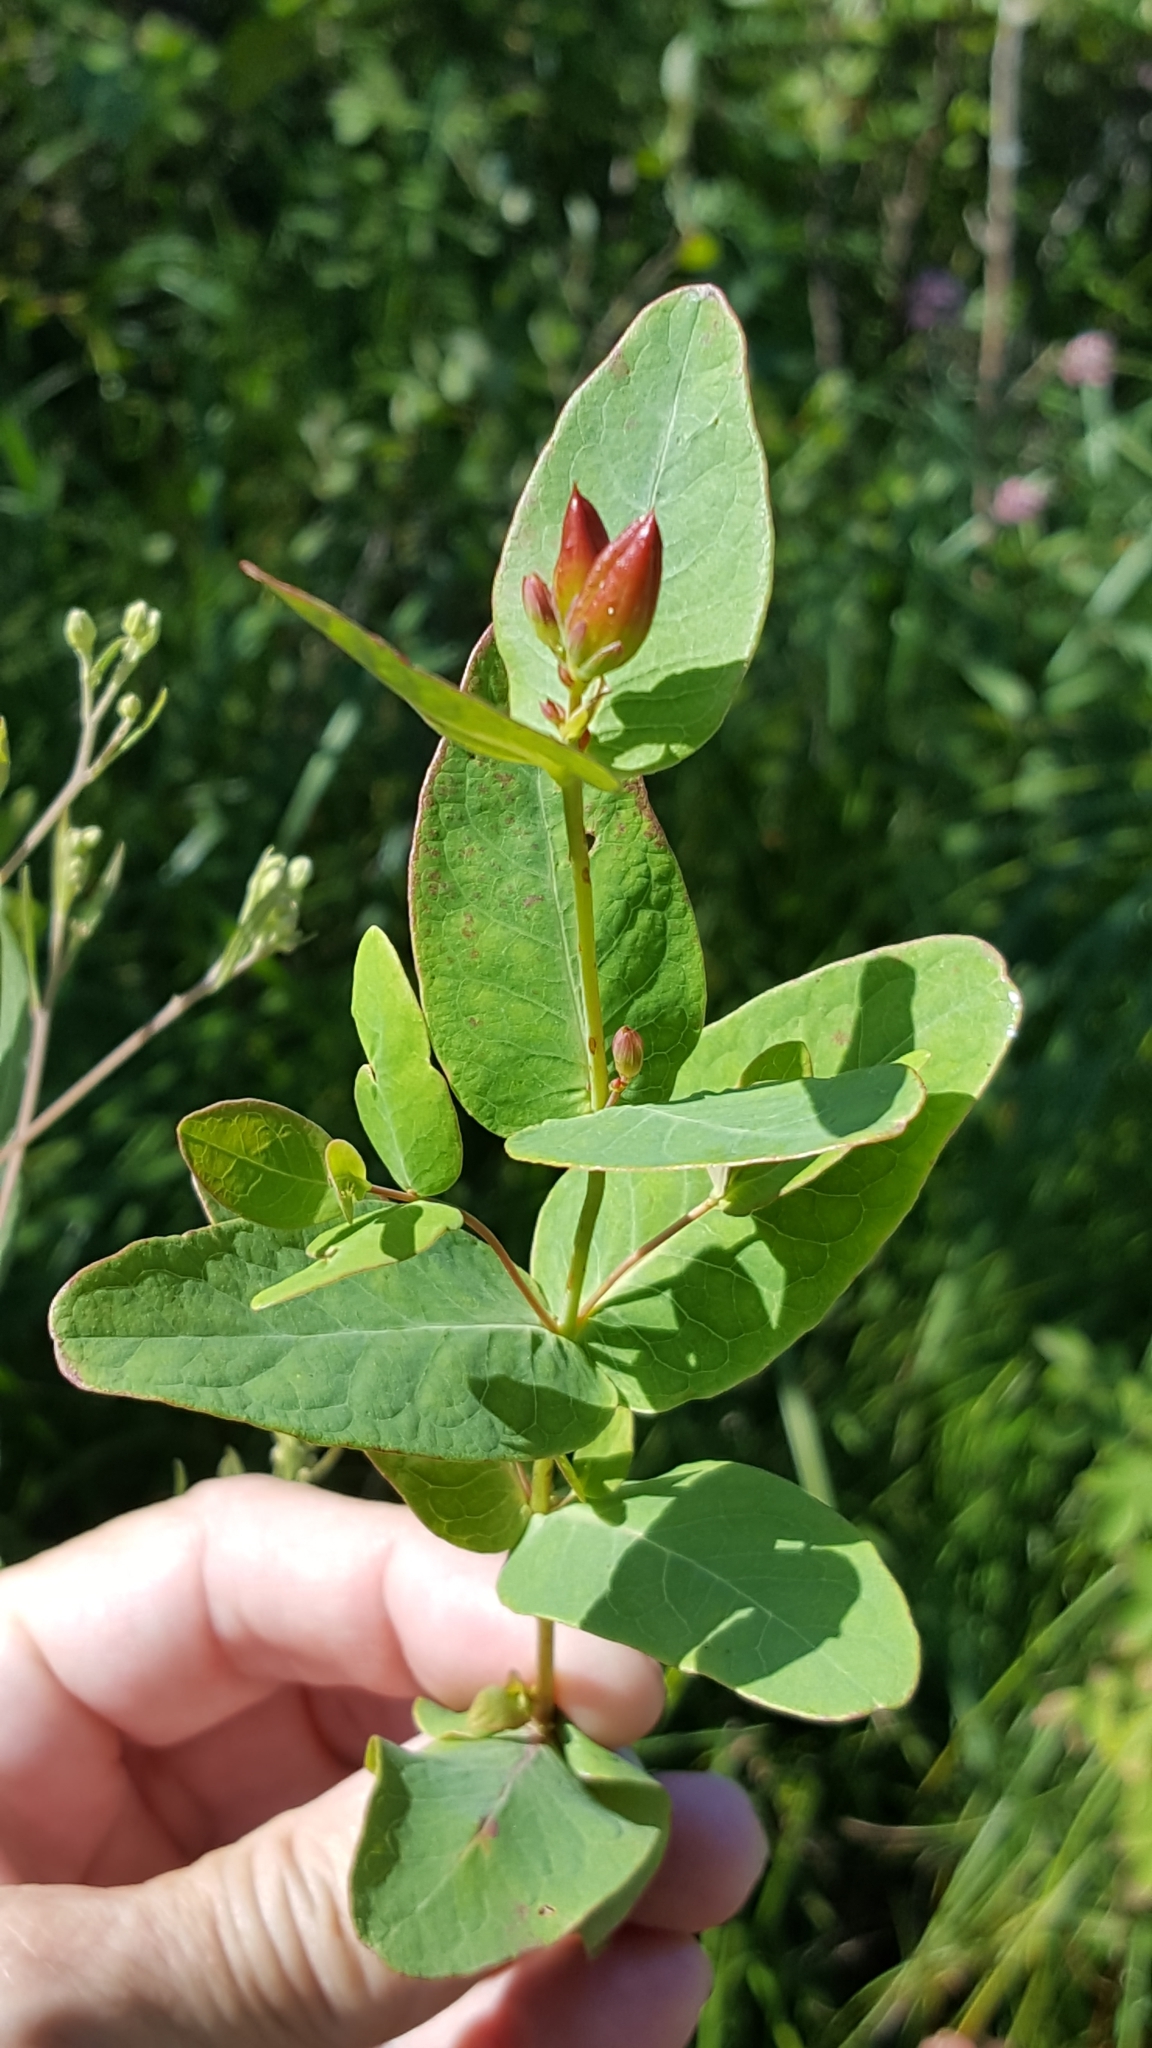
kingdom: Plantae
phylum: Tracheophyta
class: Magnoliopsida
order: Malpighiales
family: Hypericaceae
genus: Triadenum
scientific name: Triadenum fraseri
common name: Fraser's marsh st. johnswort
